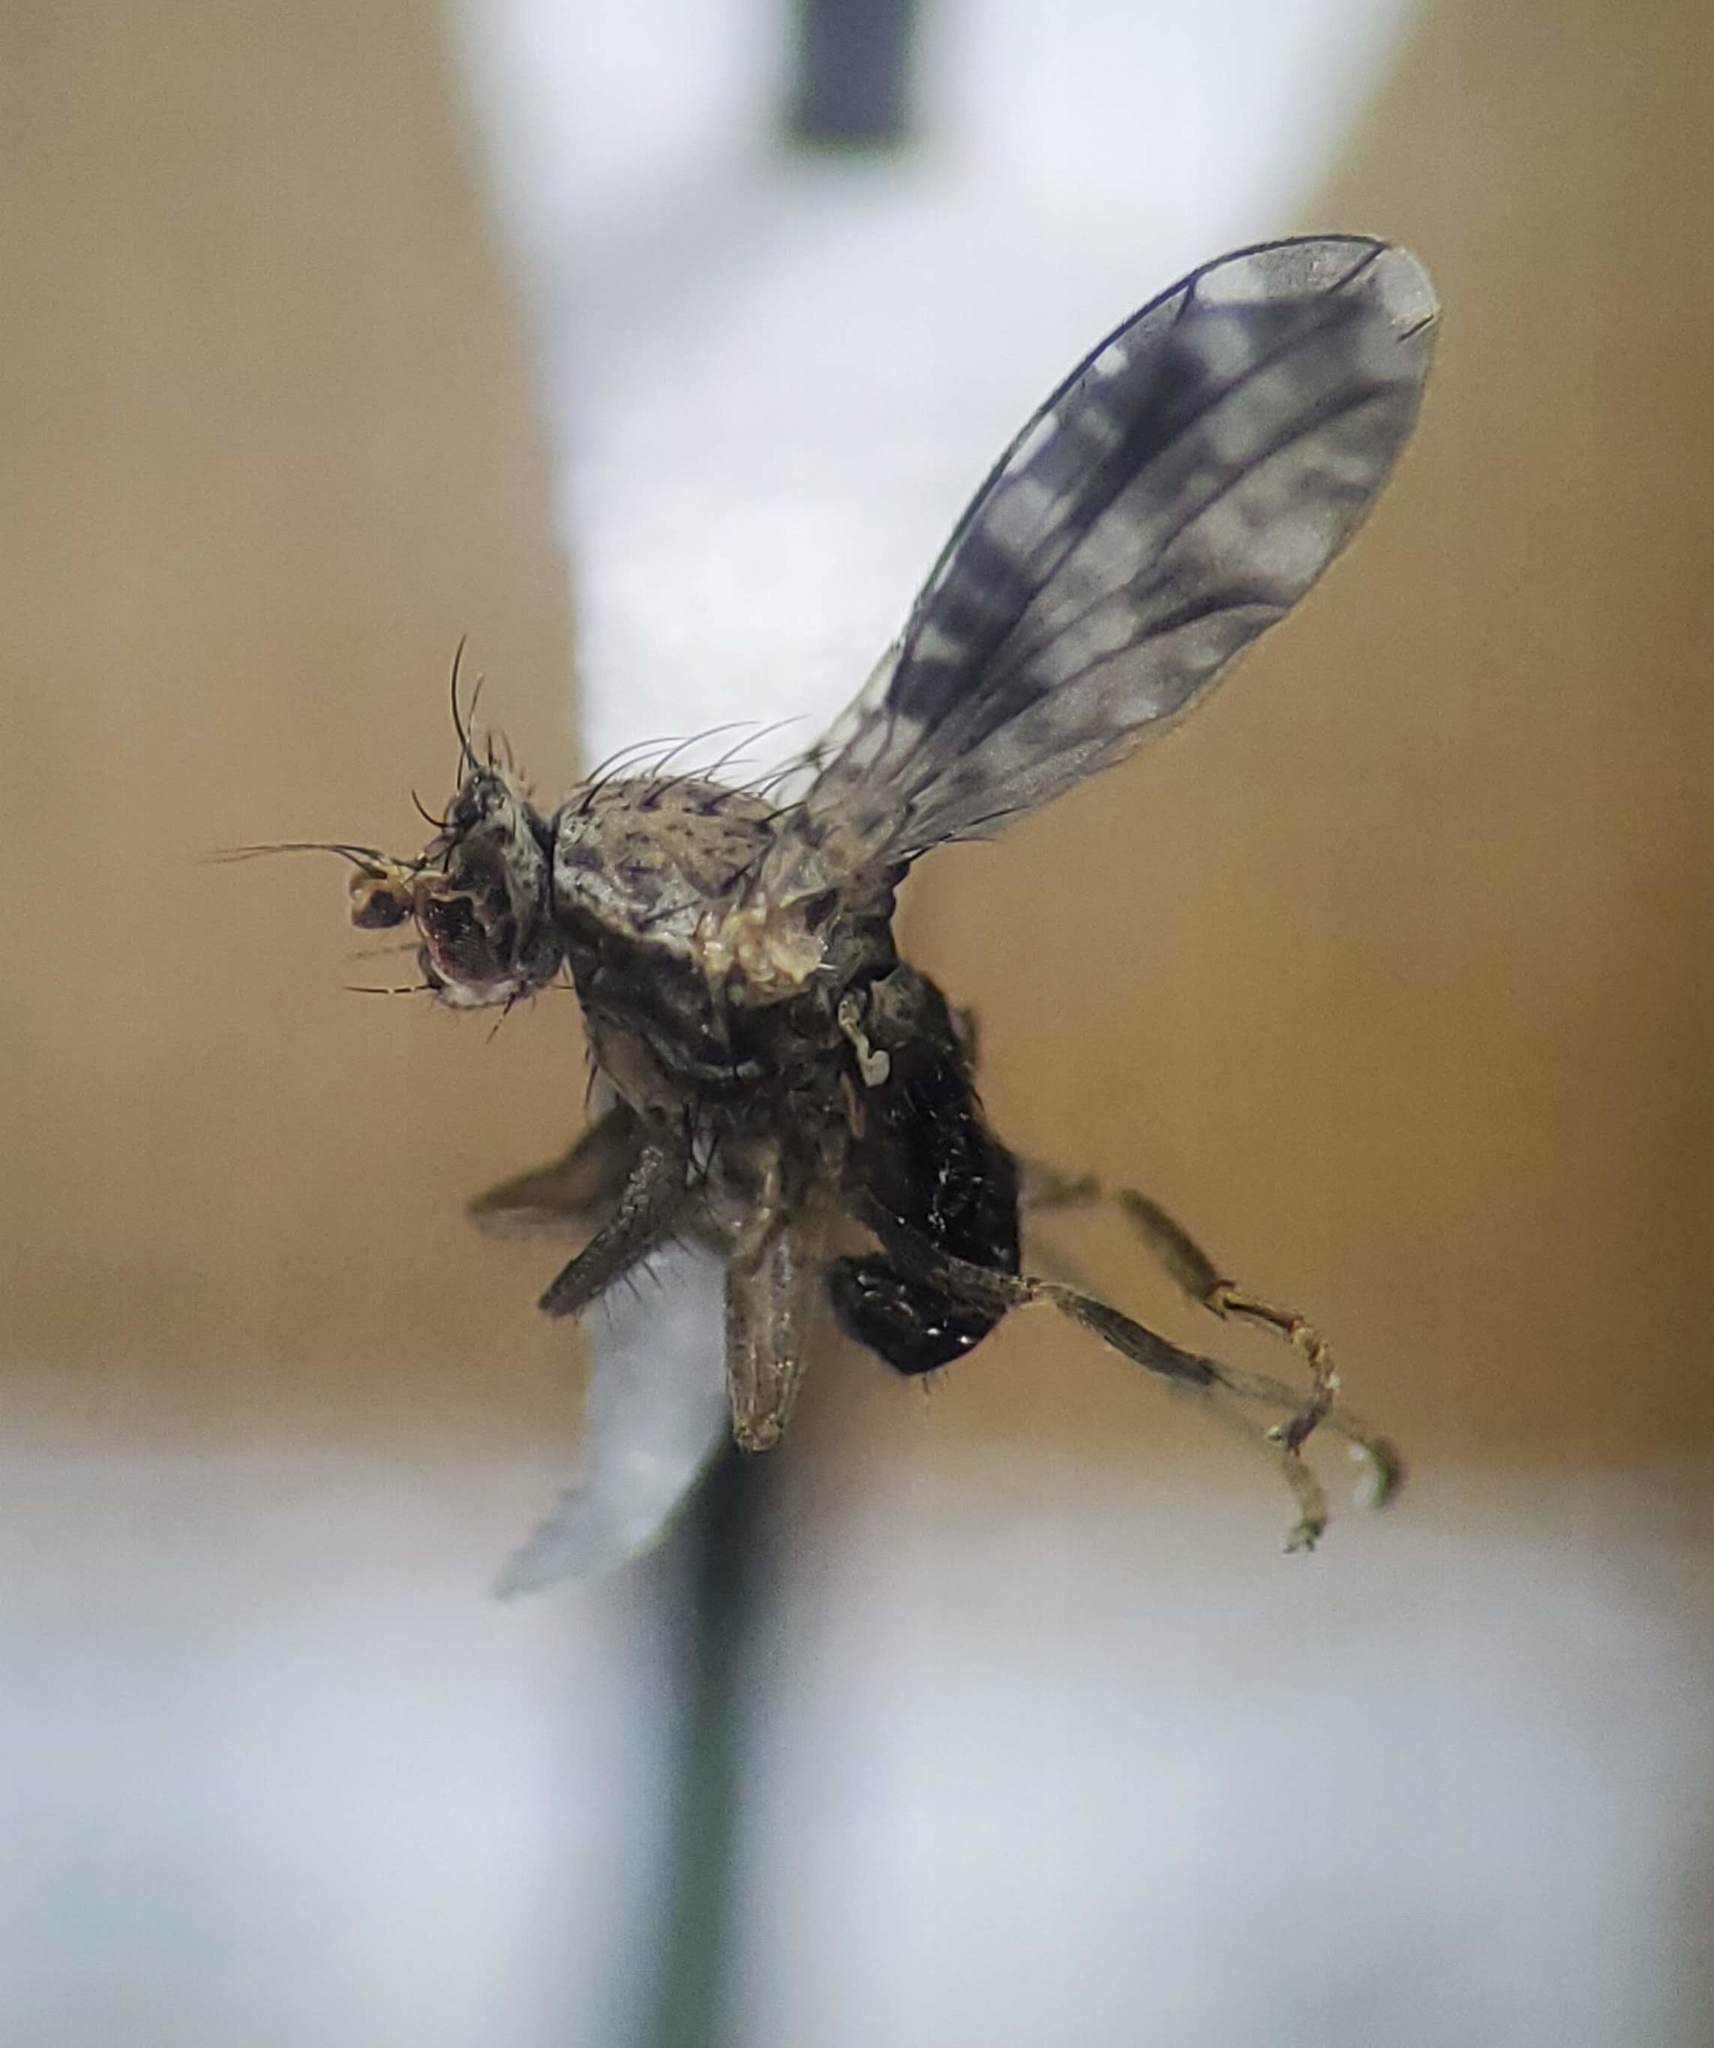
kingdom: Animalia
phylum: Arthropoda
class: Insecta
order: Diptera
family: Heleomyzidae
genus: Trixoscelis
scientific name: Trixoscelis polita
